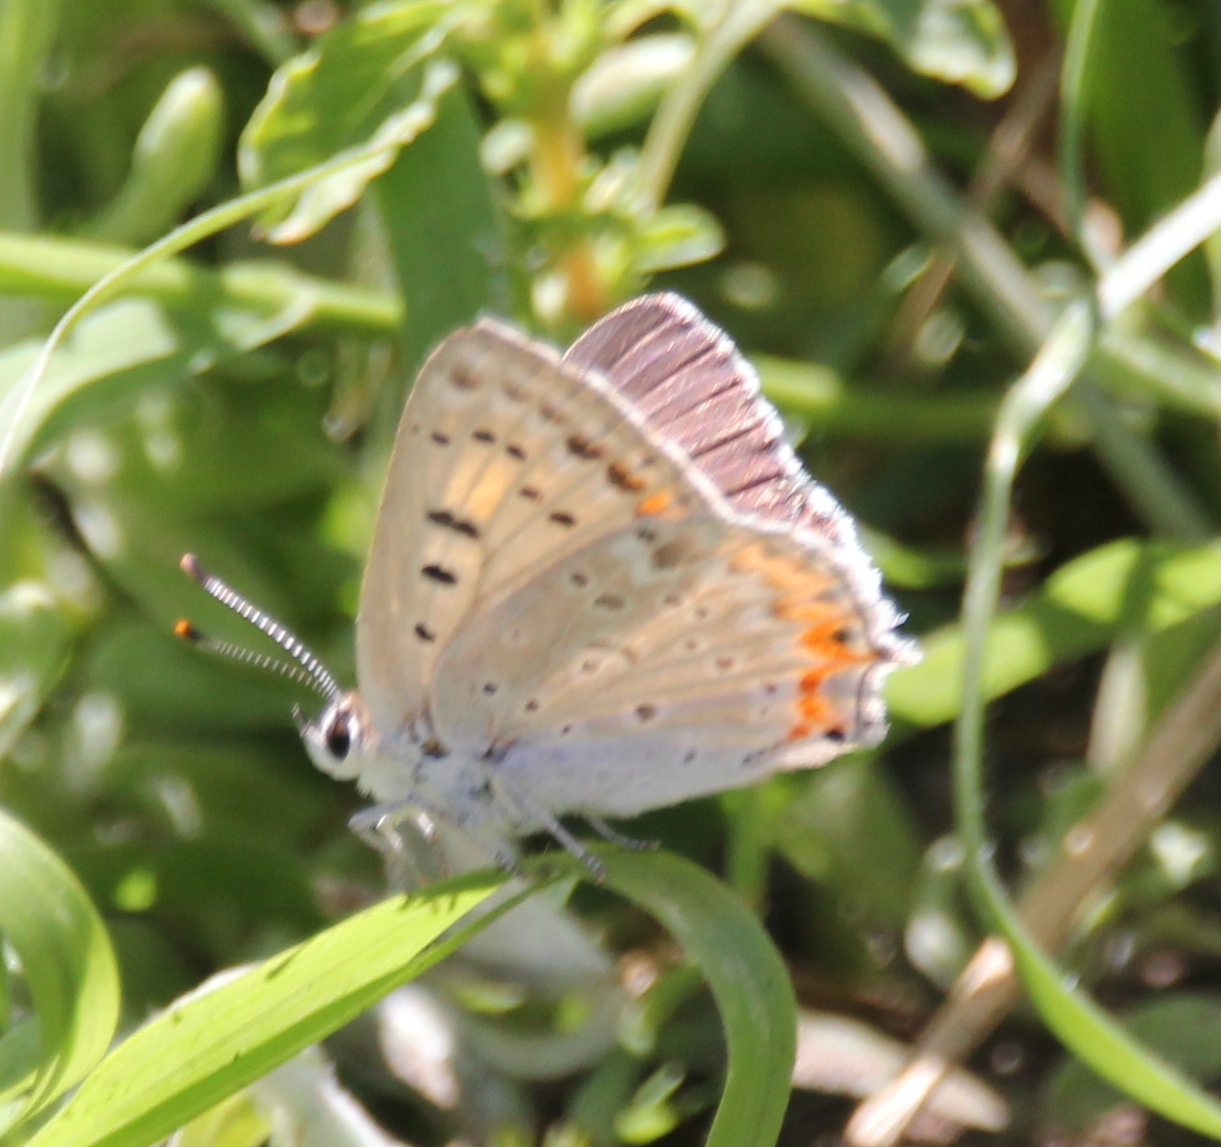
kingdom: Animalia
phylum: Arthropoda
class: Insecta
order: Lepidoptera
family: Lycaenidae
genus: Tharsalea
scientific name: Tharsalea xanthoides
